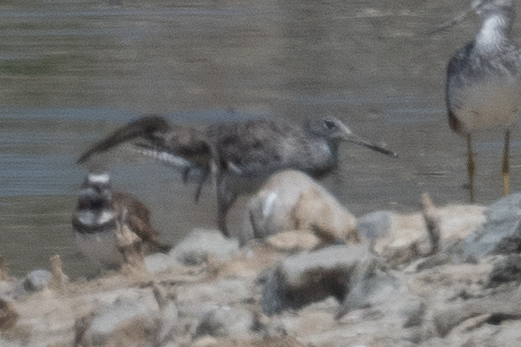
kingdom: Animalia
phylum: Chordata
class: Aves
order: Charadriiformes
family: Scolopacidae
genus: Tringa
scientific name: Tringa melanoleuca
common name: Greater yellowlegs
